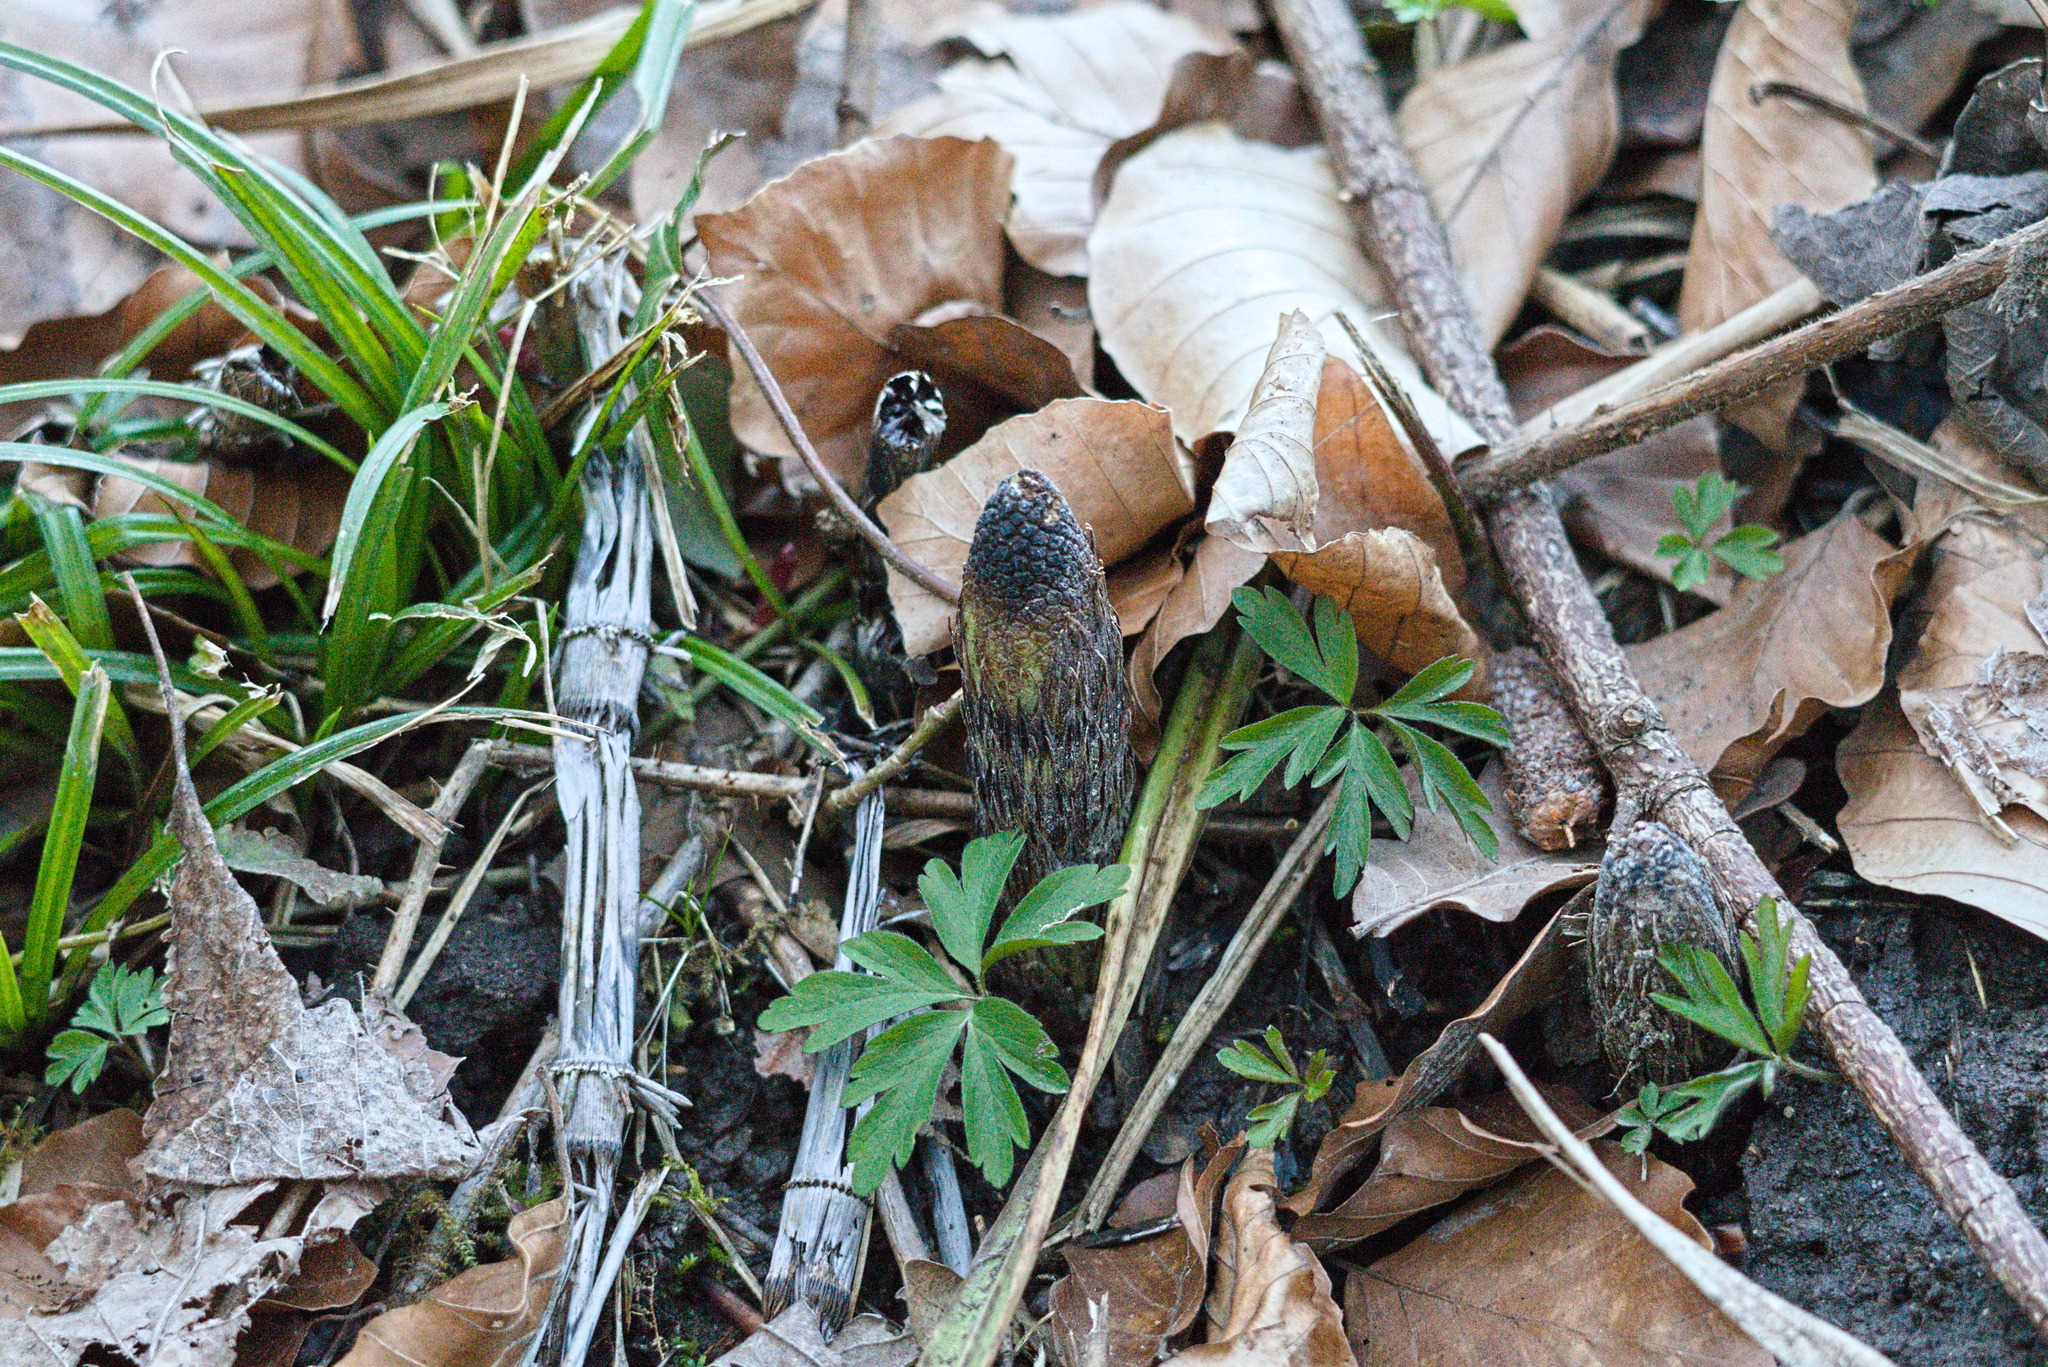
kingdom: Plantae
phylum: Tracheophyta
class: Polypodiopsida
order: Equisetales
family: Equisetaceae
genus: Equisetum
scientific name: Equisetum telmateia
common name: Great horsetail
